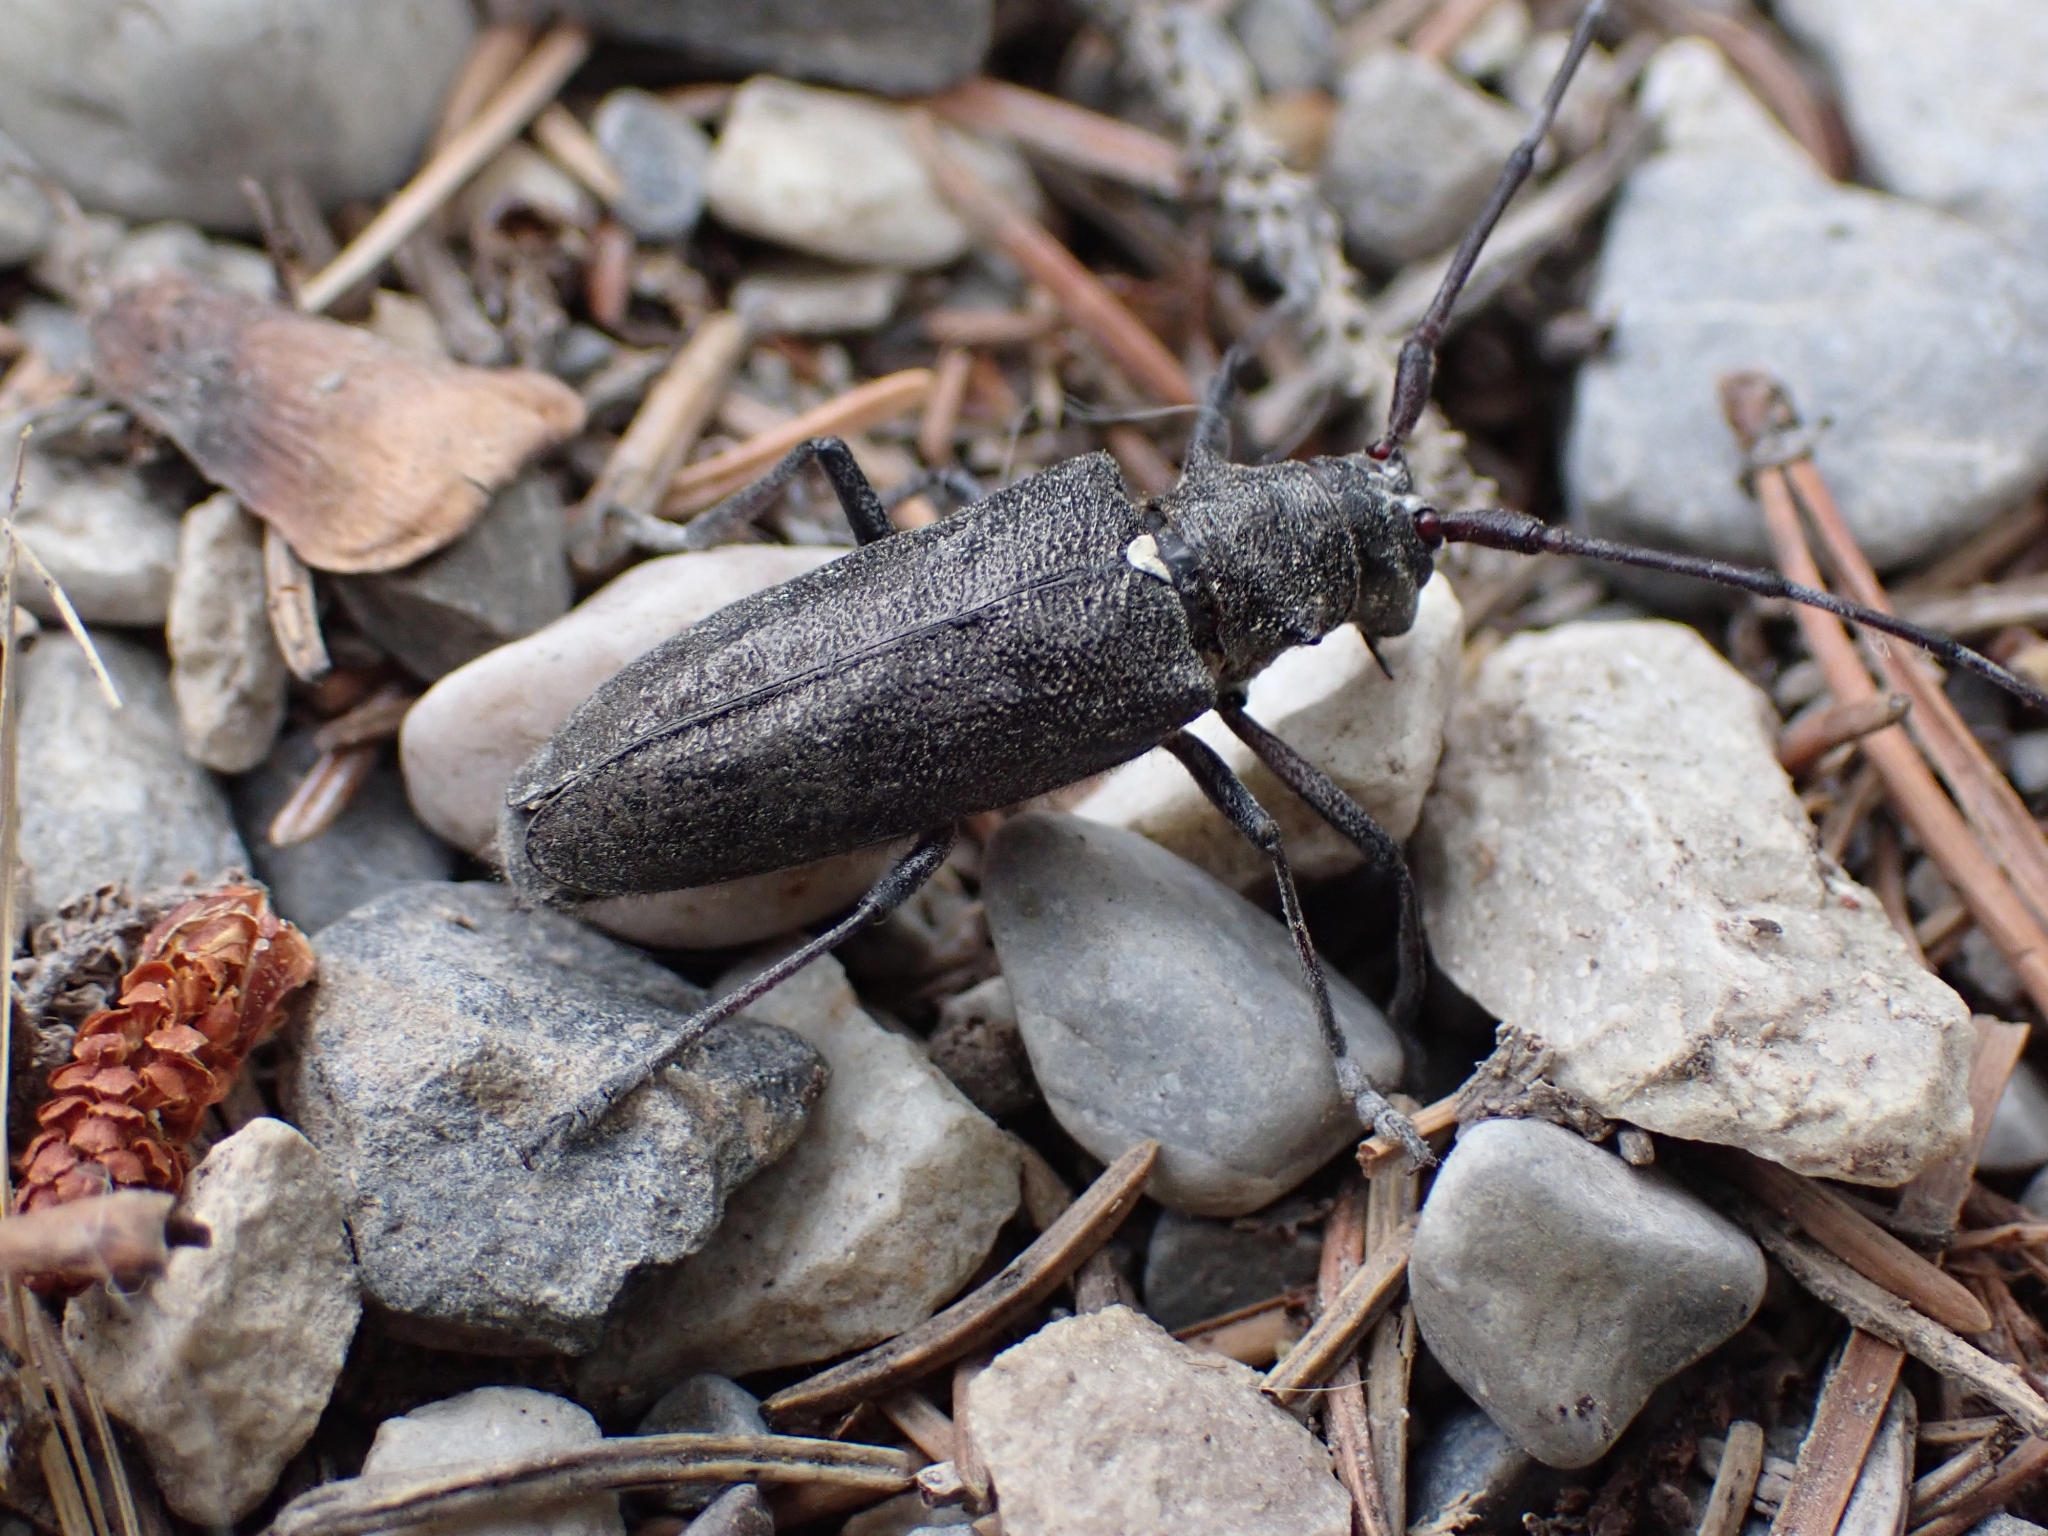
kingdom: Animalia
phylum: Arthropoda
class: Insecta
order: Coleoptera
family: Cerambycidae
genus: Monochamus
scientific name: Monochamus scutellatus
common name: White-spotted sawyer beetle
